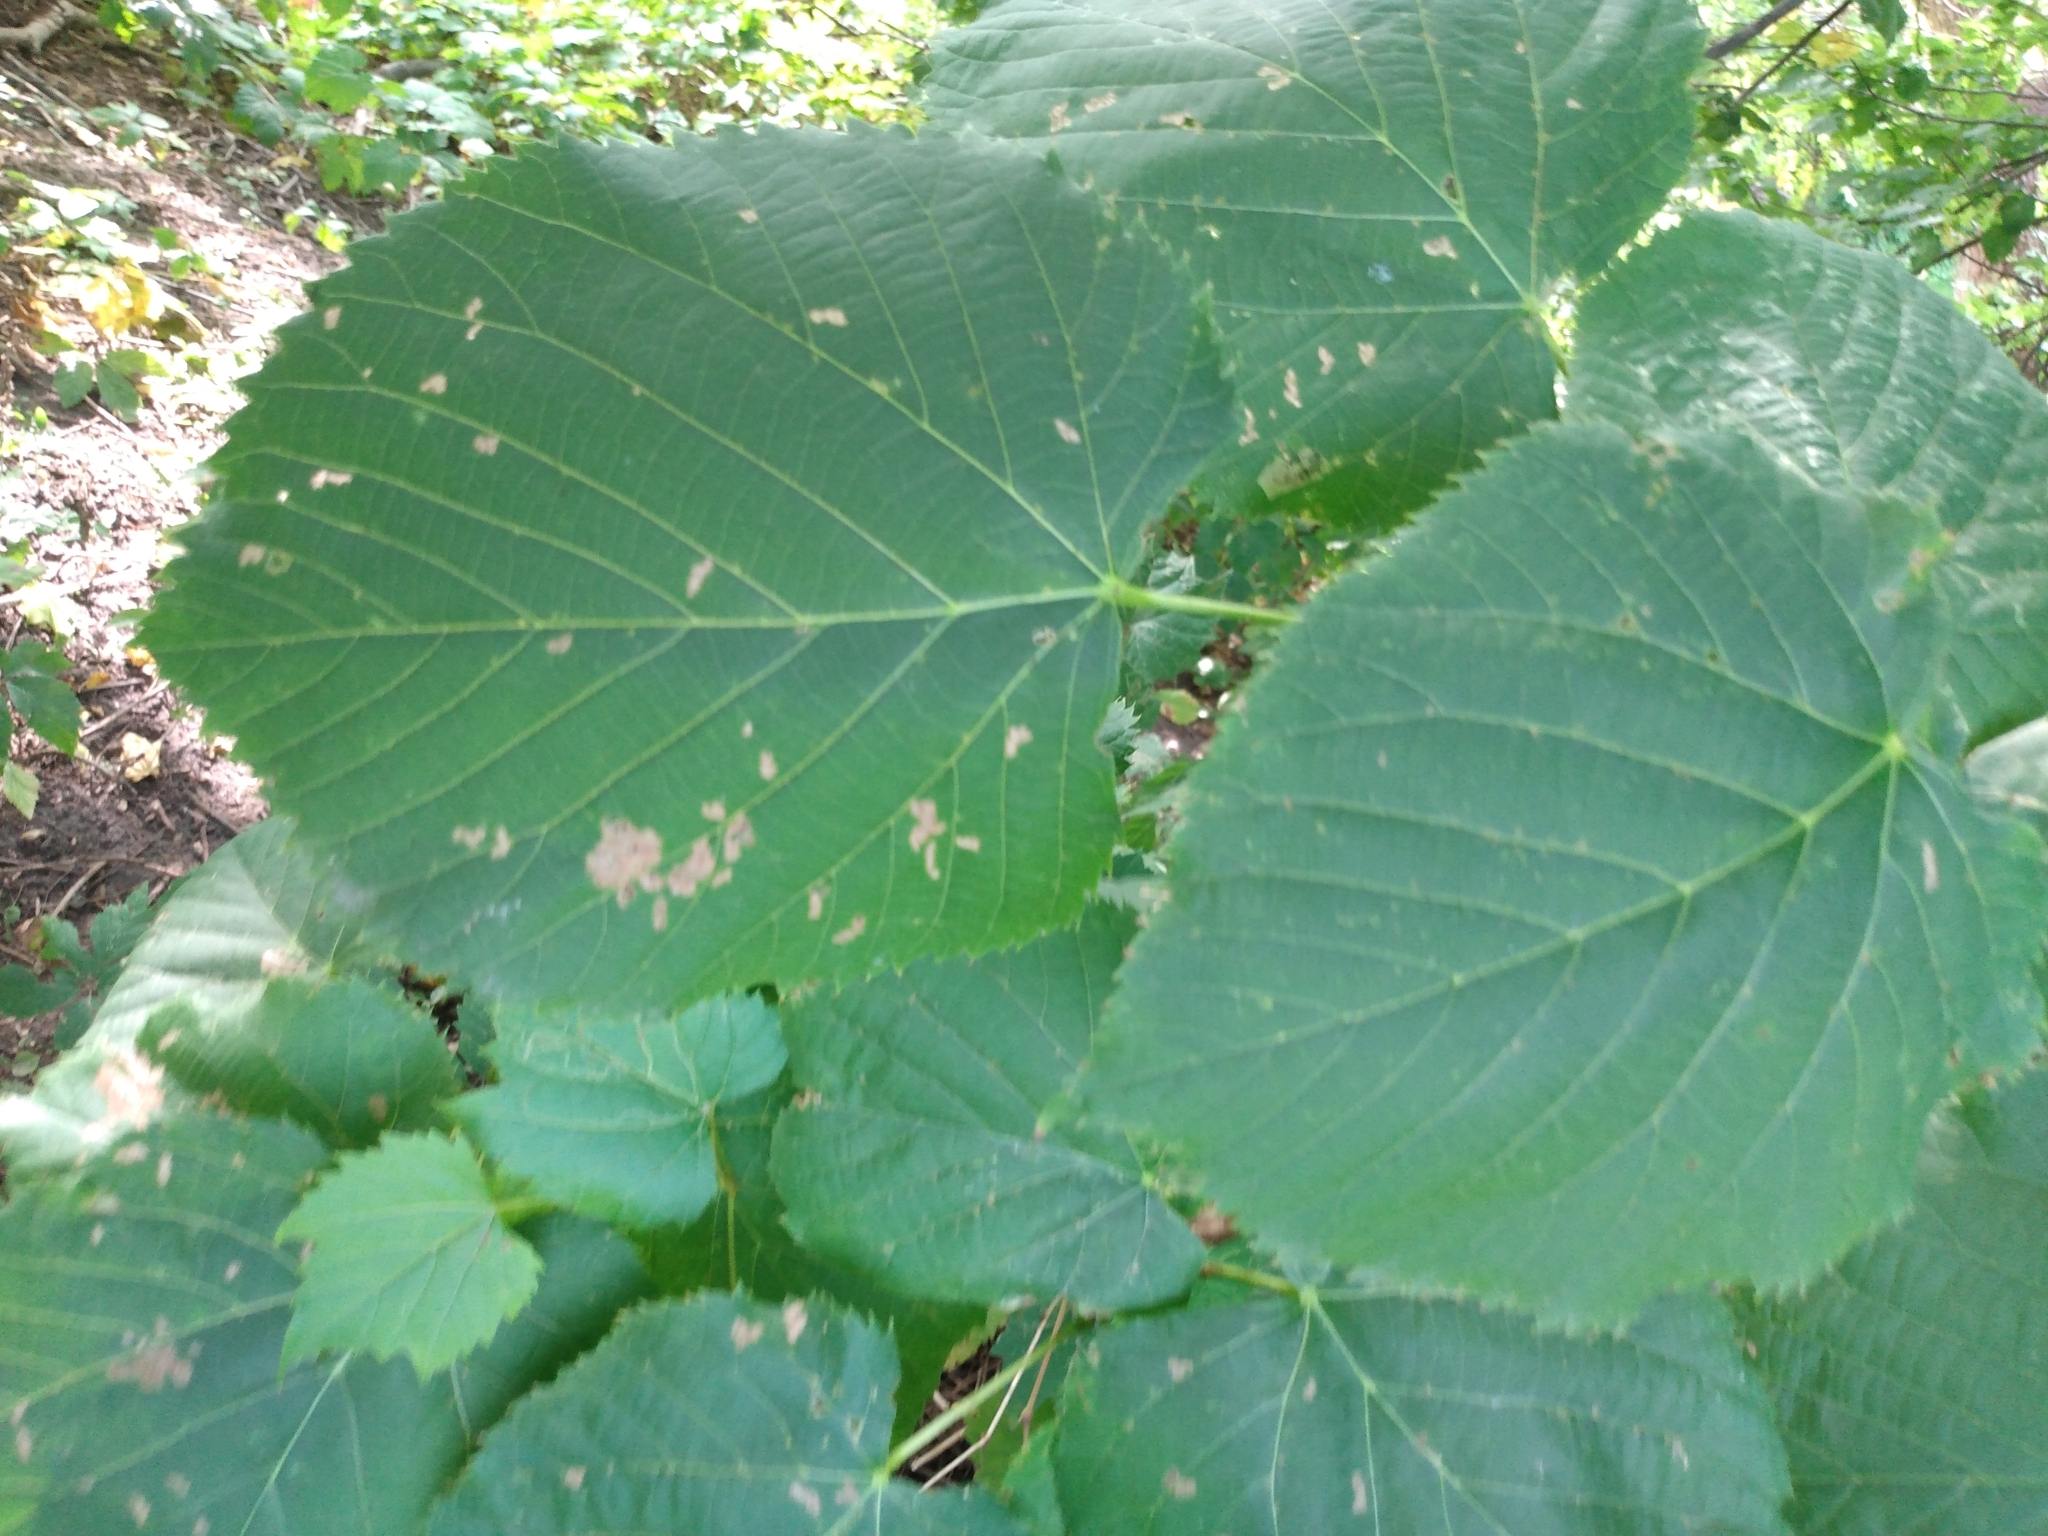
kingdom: Plantae
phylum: Tracheophyta
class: Magnoliopsida
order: Malvales
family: Malvaceae
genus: Tilia
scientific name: Tilia americana
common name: Basswood
